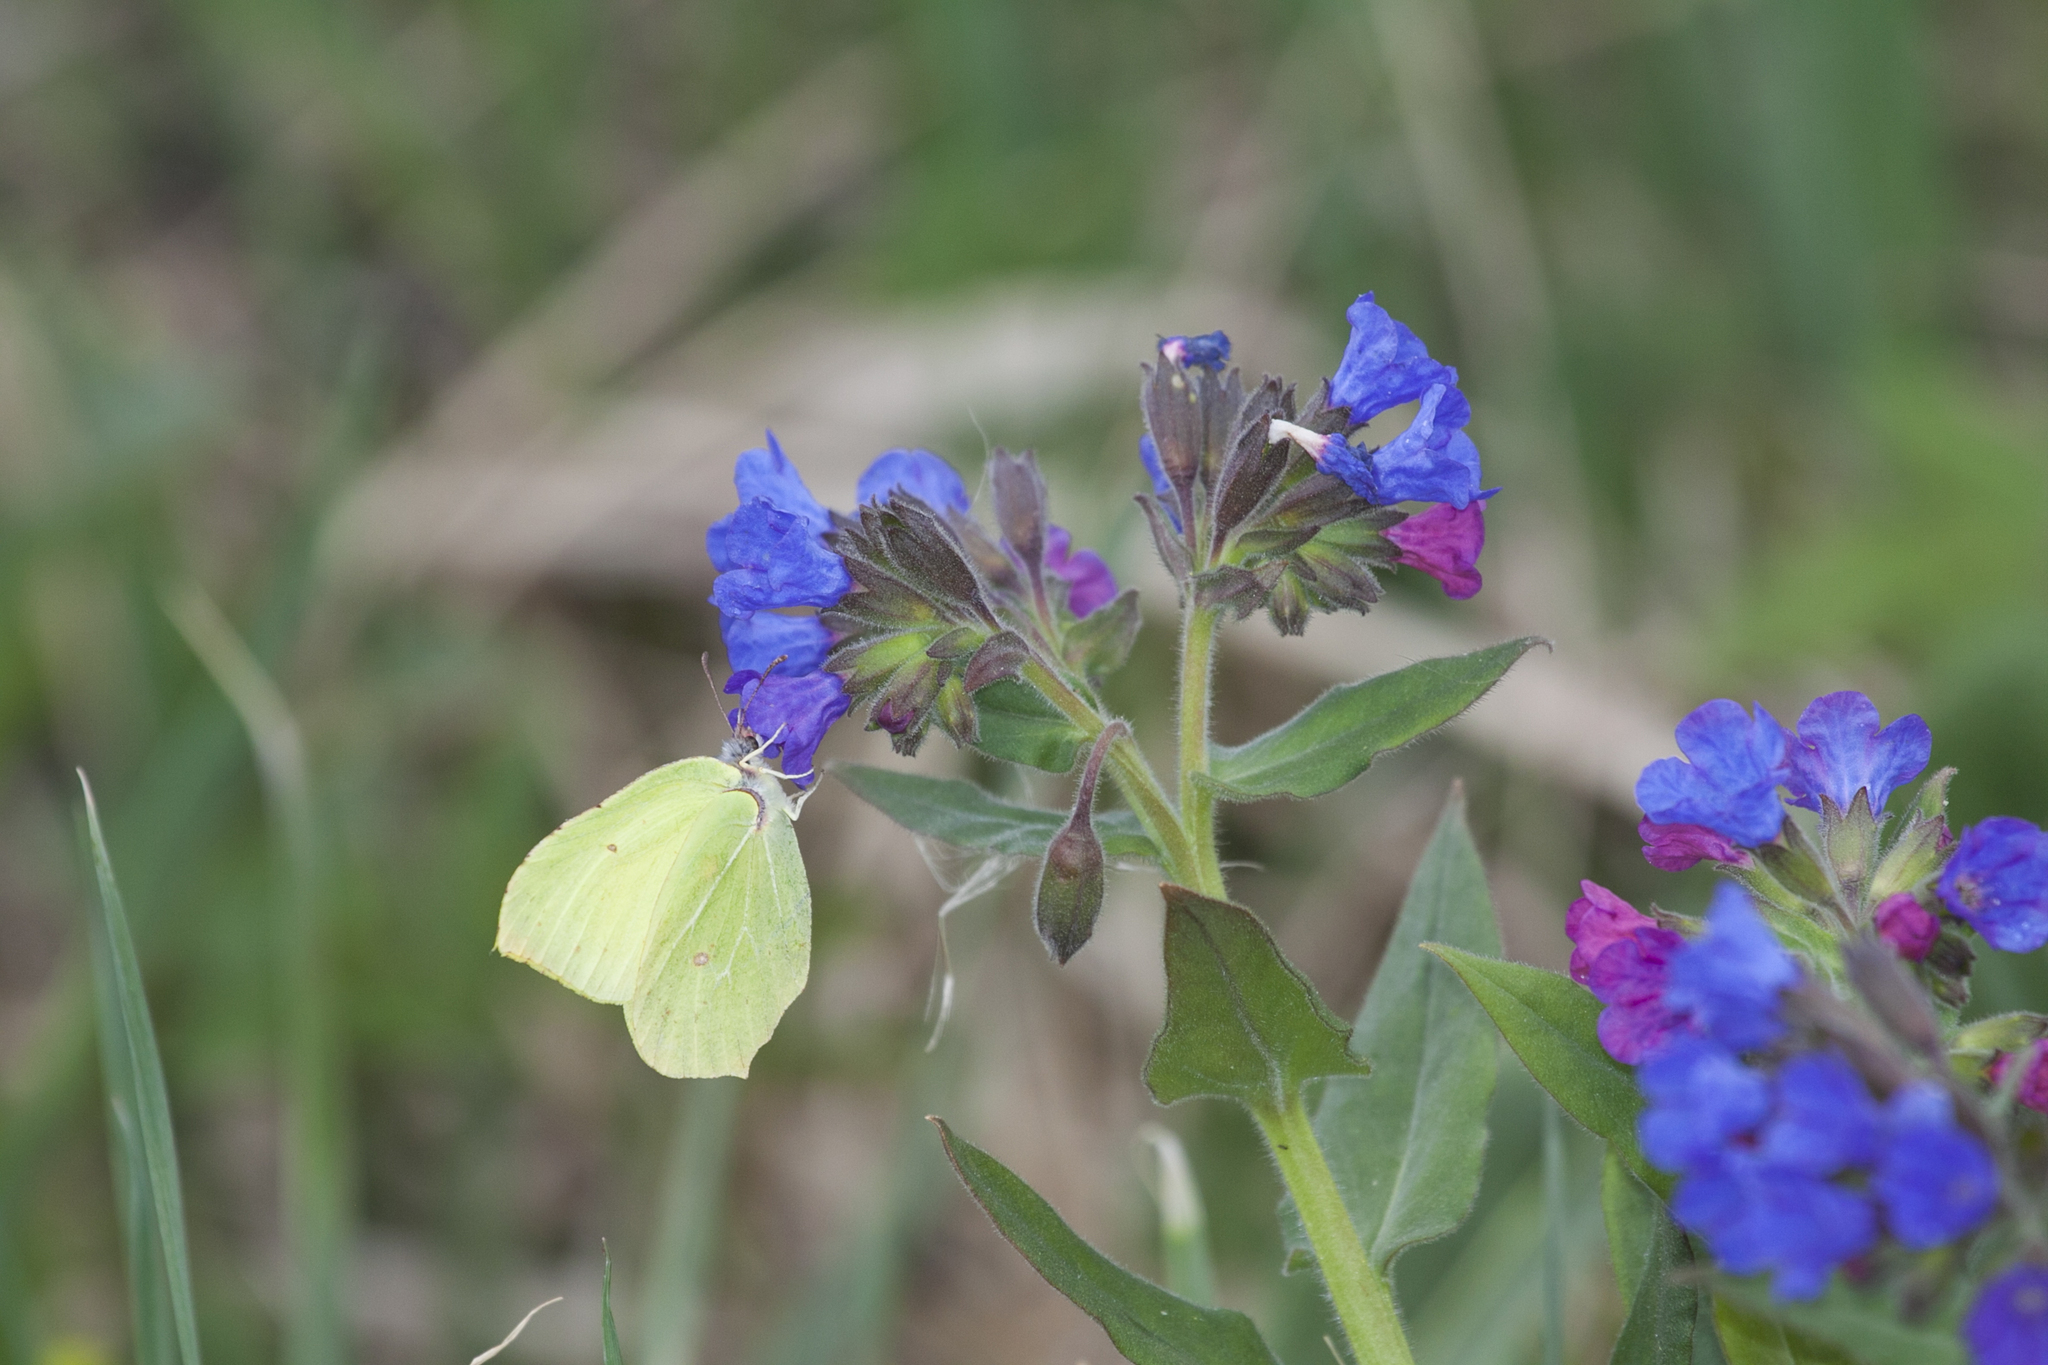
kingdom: Animalia
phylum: Arthropoda
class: Insecta
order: Lepidoptera
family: Pieridae
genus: Gonepteryx
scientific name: Gonepteryx rhamni
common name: Brimstone
